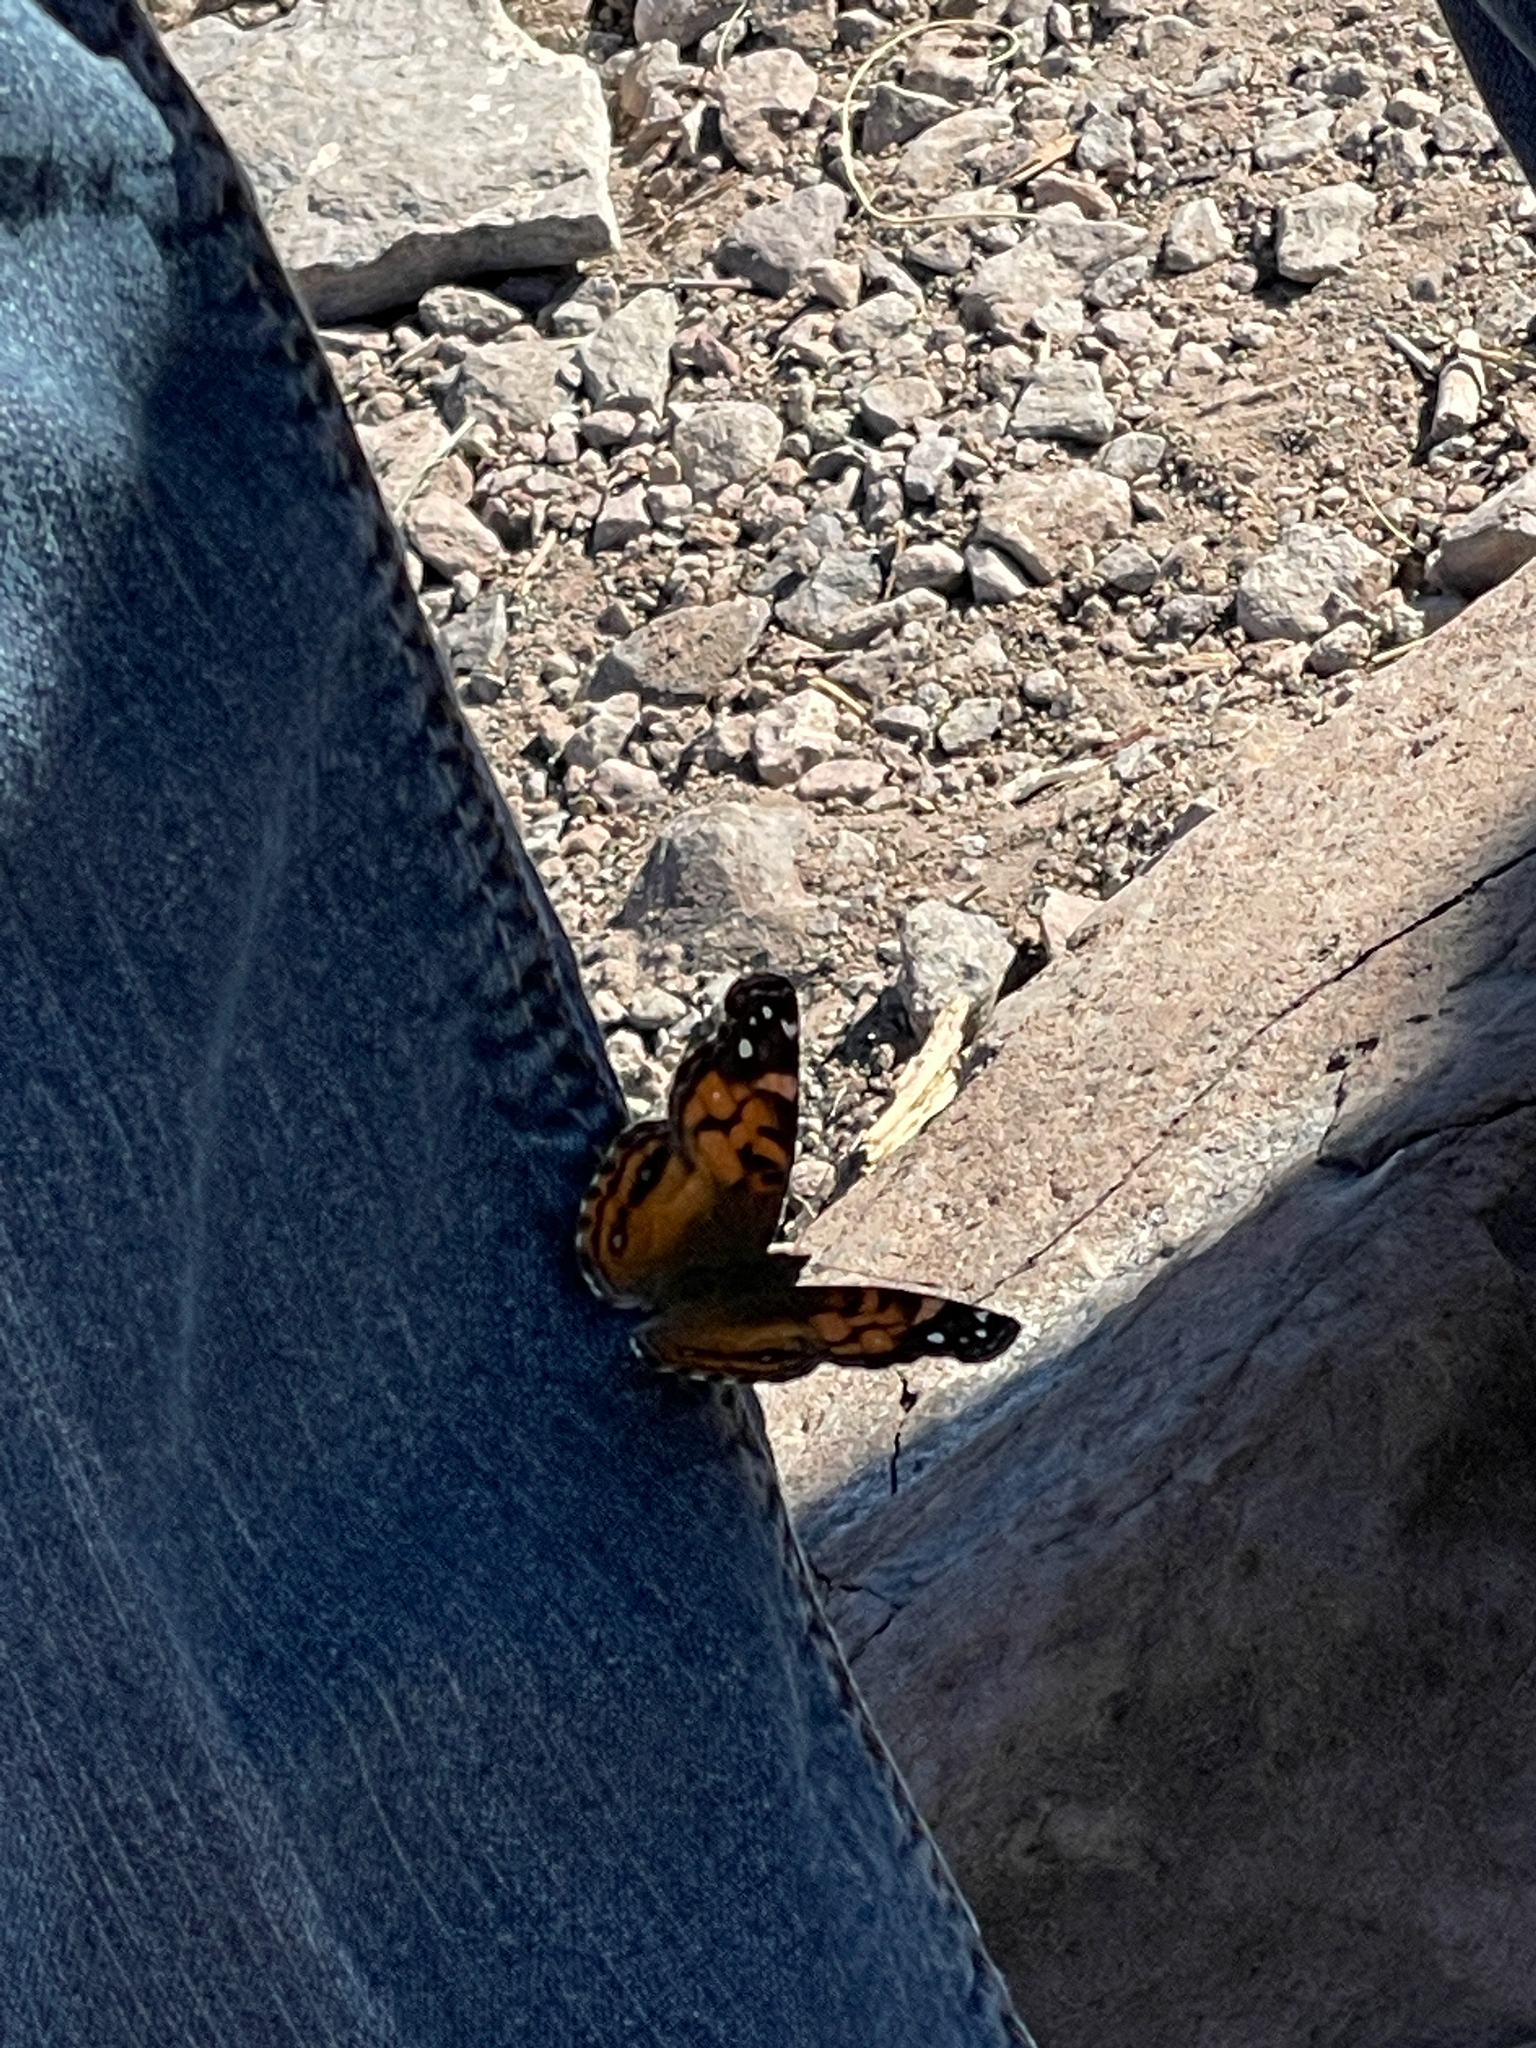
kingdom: Animalia
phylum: Arthropoda
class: Insecta
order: Lepidoptera
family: Nymphalidae
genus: Vanessa
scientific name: Vanessa virginiensis
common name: American lady
